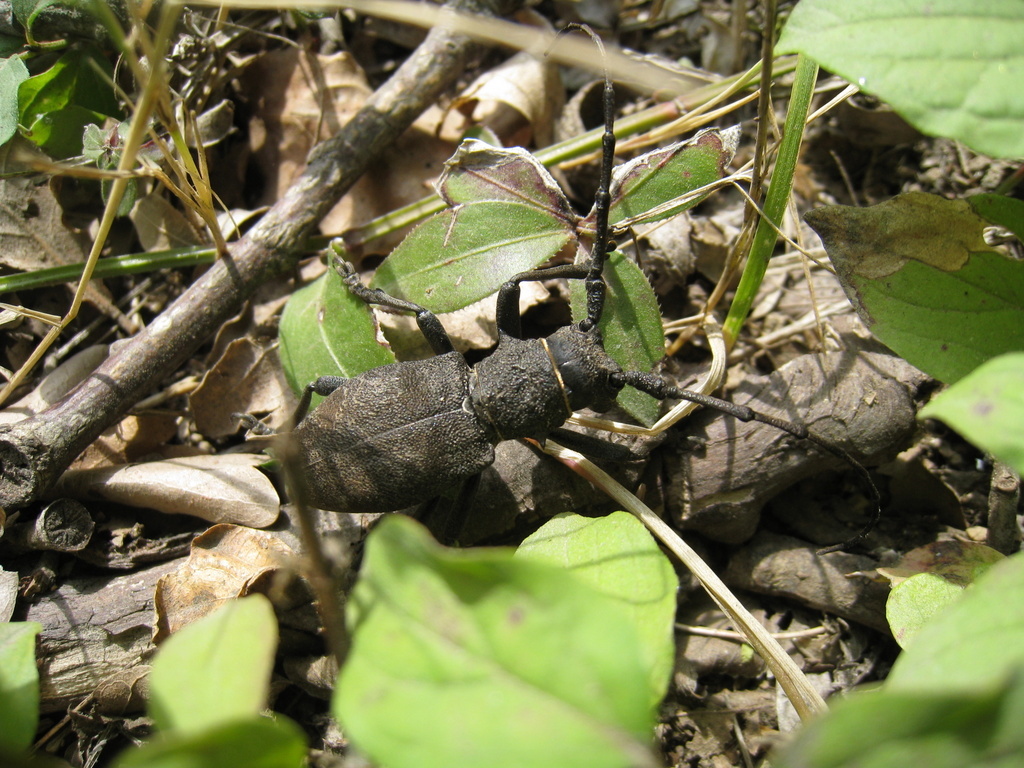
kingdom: Animalia
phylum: Arthropoda
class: Insecta
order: Coleoptera
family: Cerambycidae
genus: Morimus
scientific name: Morimus asper
